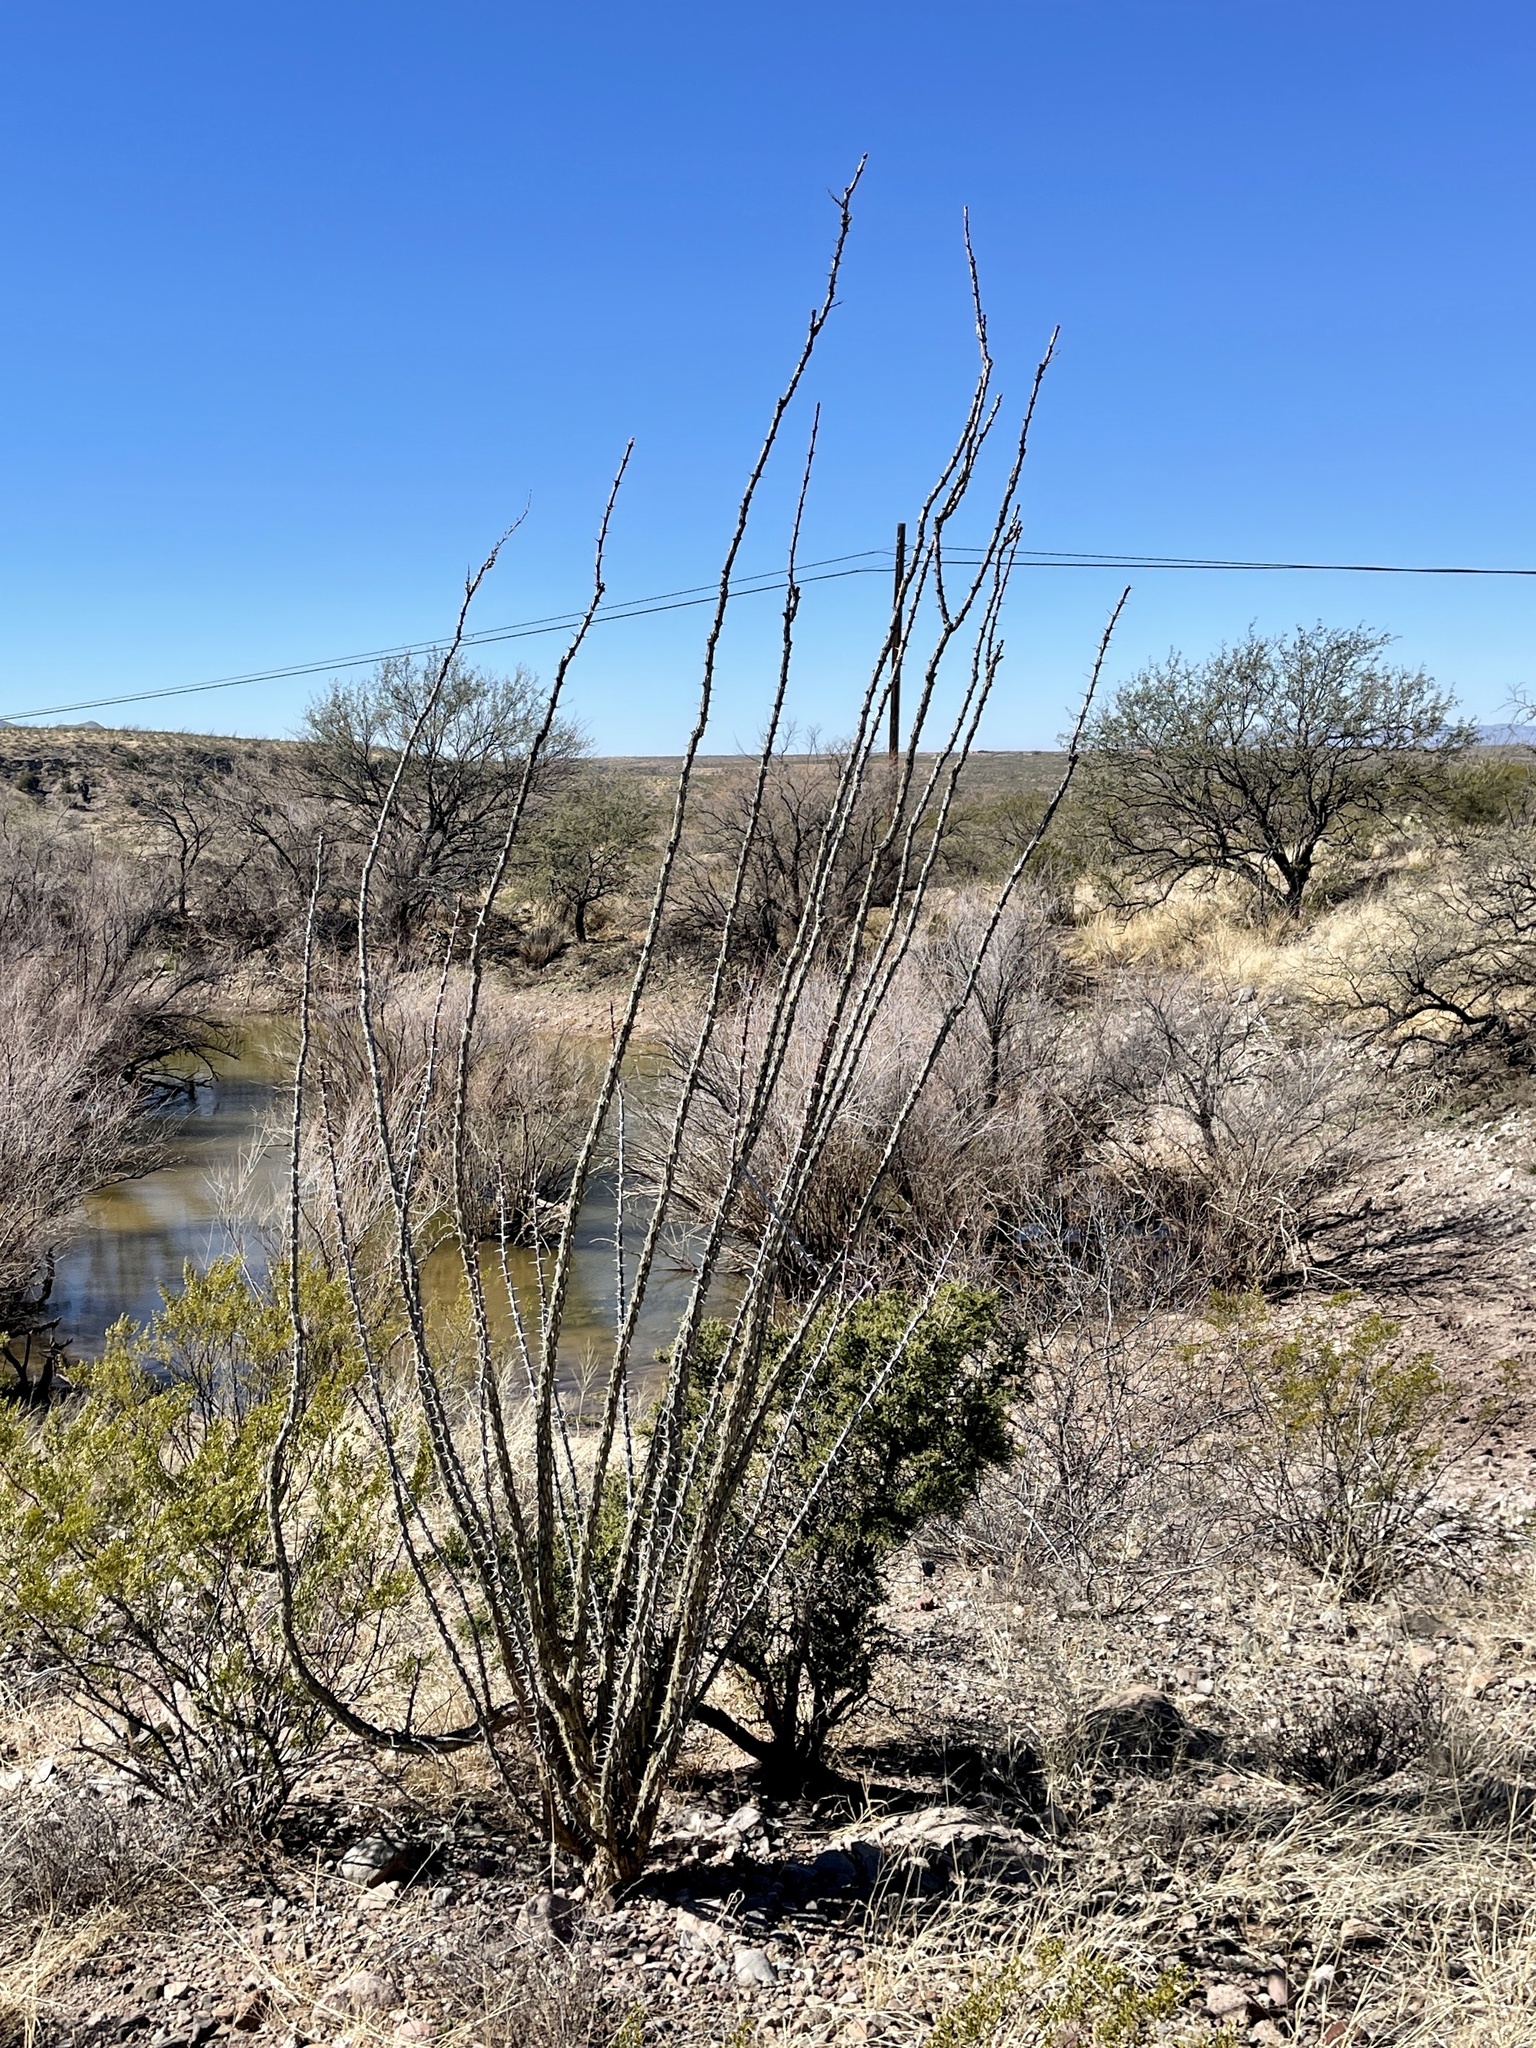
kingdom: Plantae
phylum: Tracheophyta
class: Magnoliopsida
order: Ericales
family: Fouquieriaceae
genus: Fouquieria
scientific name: Fouquieria splendens
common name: Vine-cactus
